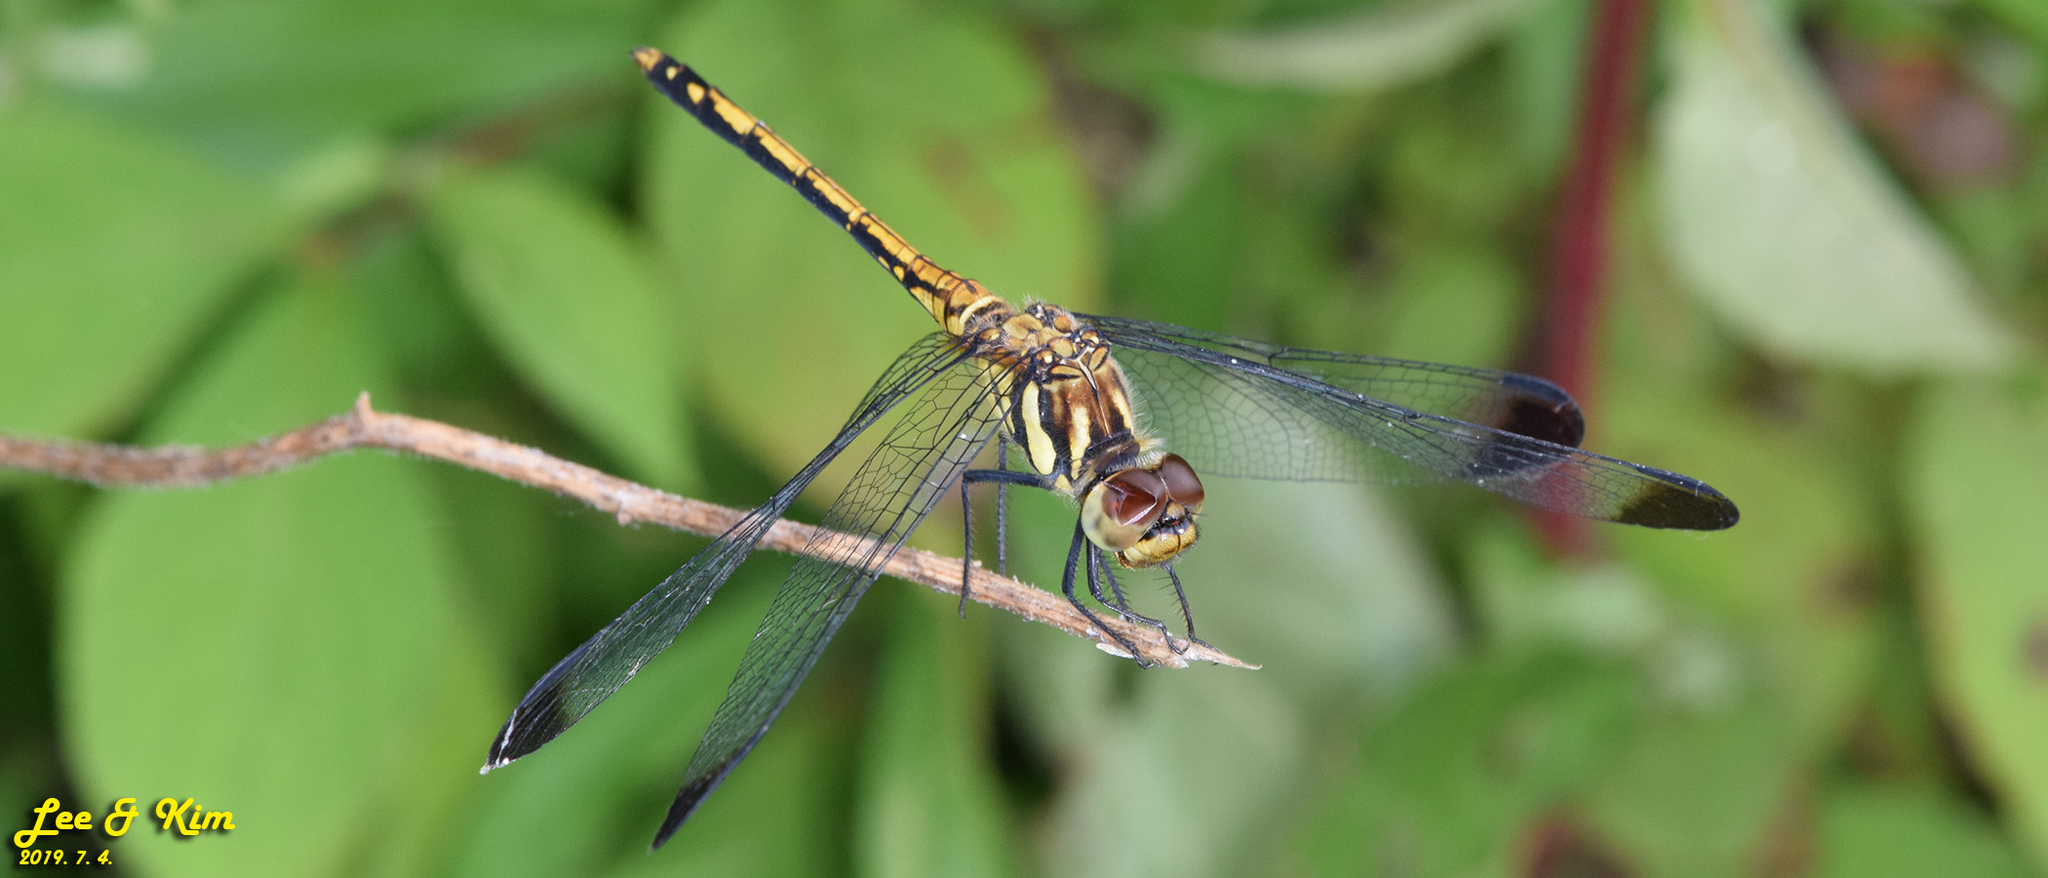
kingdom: Animalia
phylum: Arthropoda
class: Insecta
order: Odonata
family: Libellulidae
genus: Sympetrum
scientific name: Sympetrum infuscatum
